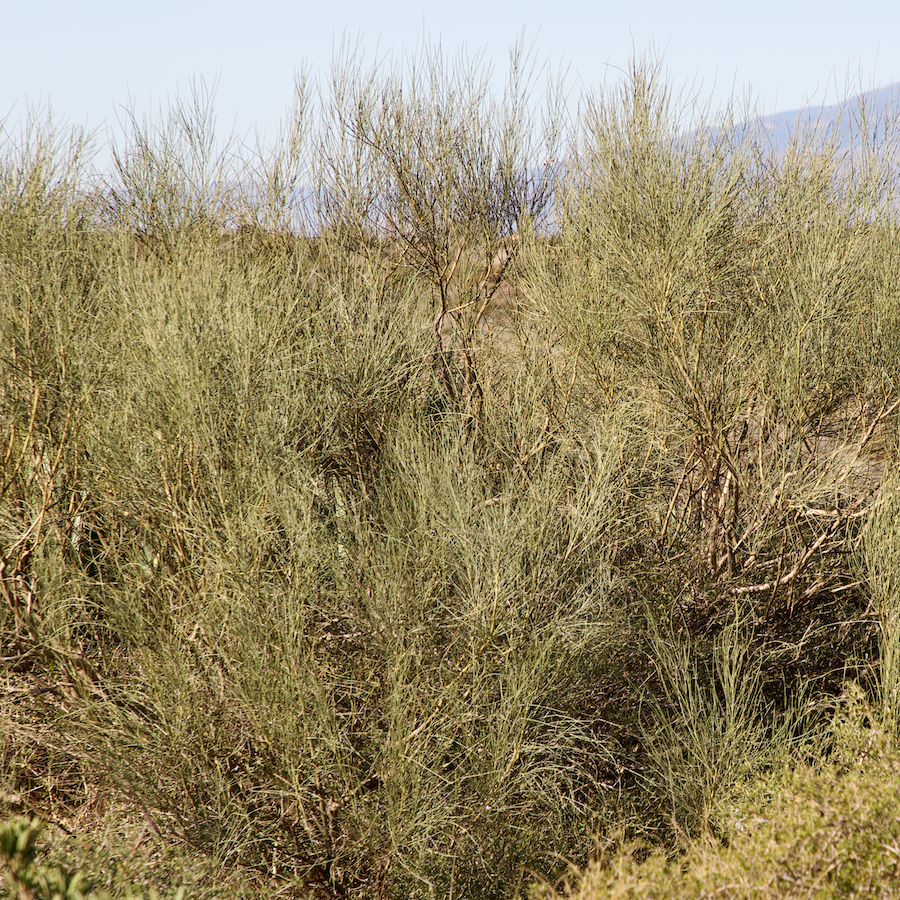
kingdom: Plantae
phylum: Tracheophyta
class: Magnoliopsida
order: Fabales
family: Fabaceae
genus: Retama
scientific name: Retama sphaerocarpa
